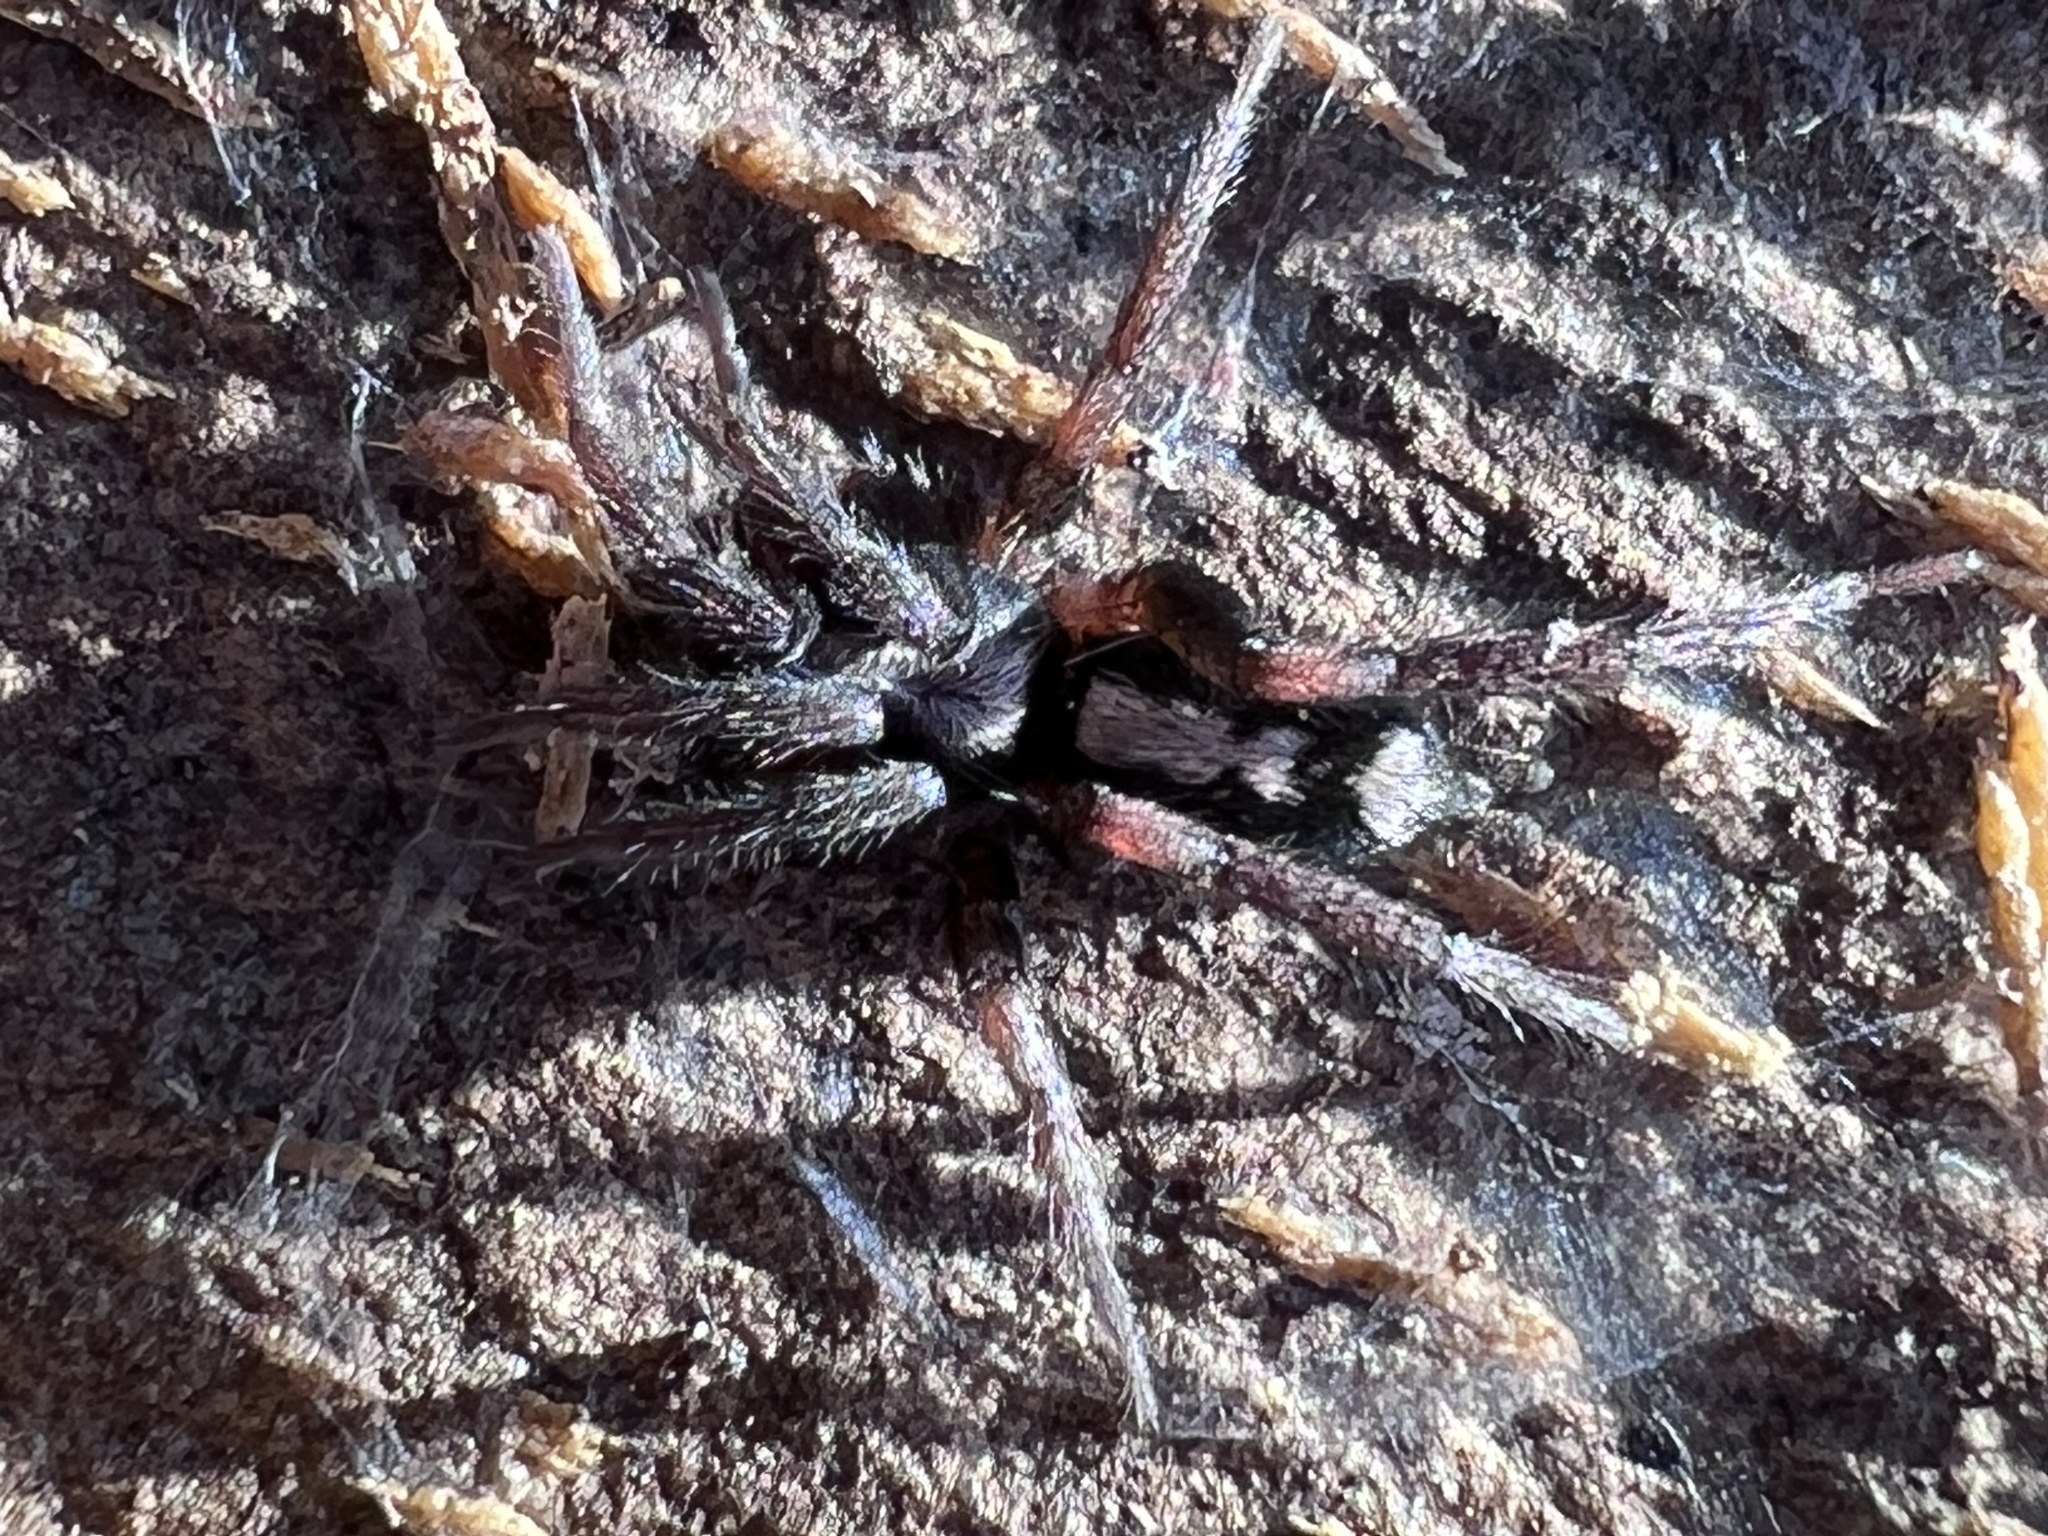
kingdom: Animalia
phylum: Arthropoda
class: Arachnida
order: Araneae
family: Gnaphosidae
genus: Herpyllus
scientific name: Herpyllus ecclesiasticus
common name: Eastern parson spider
